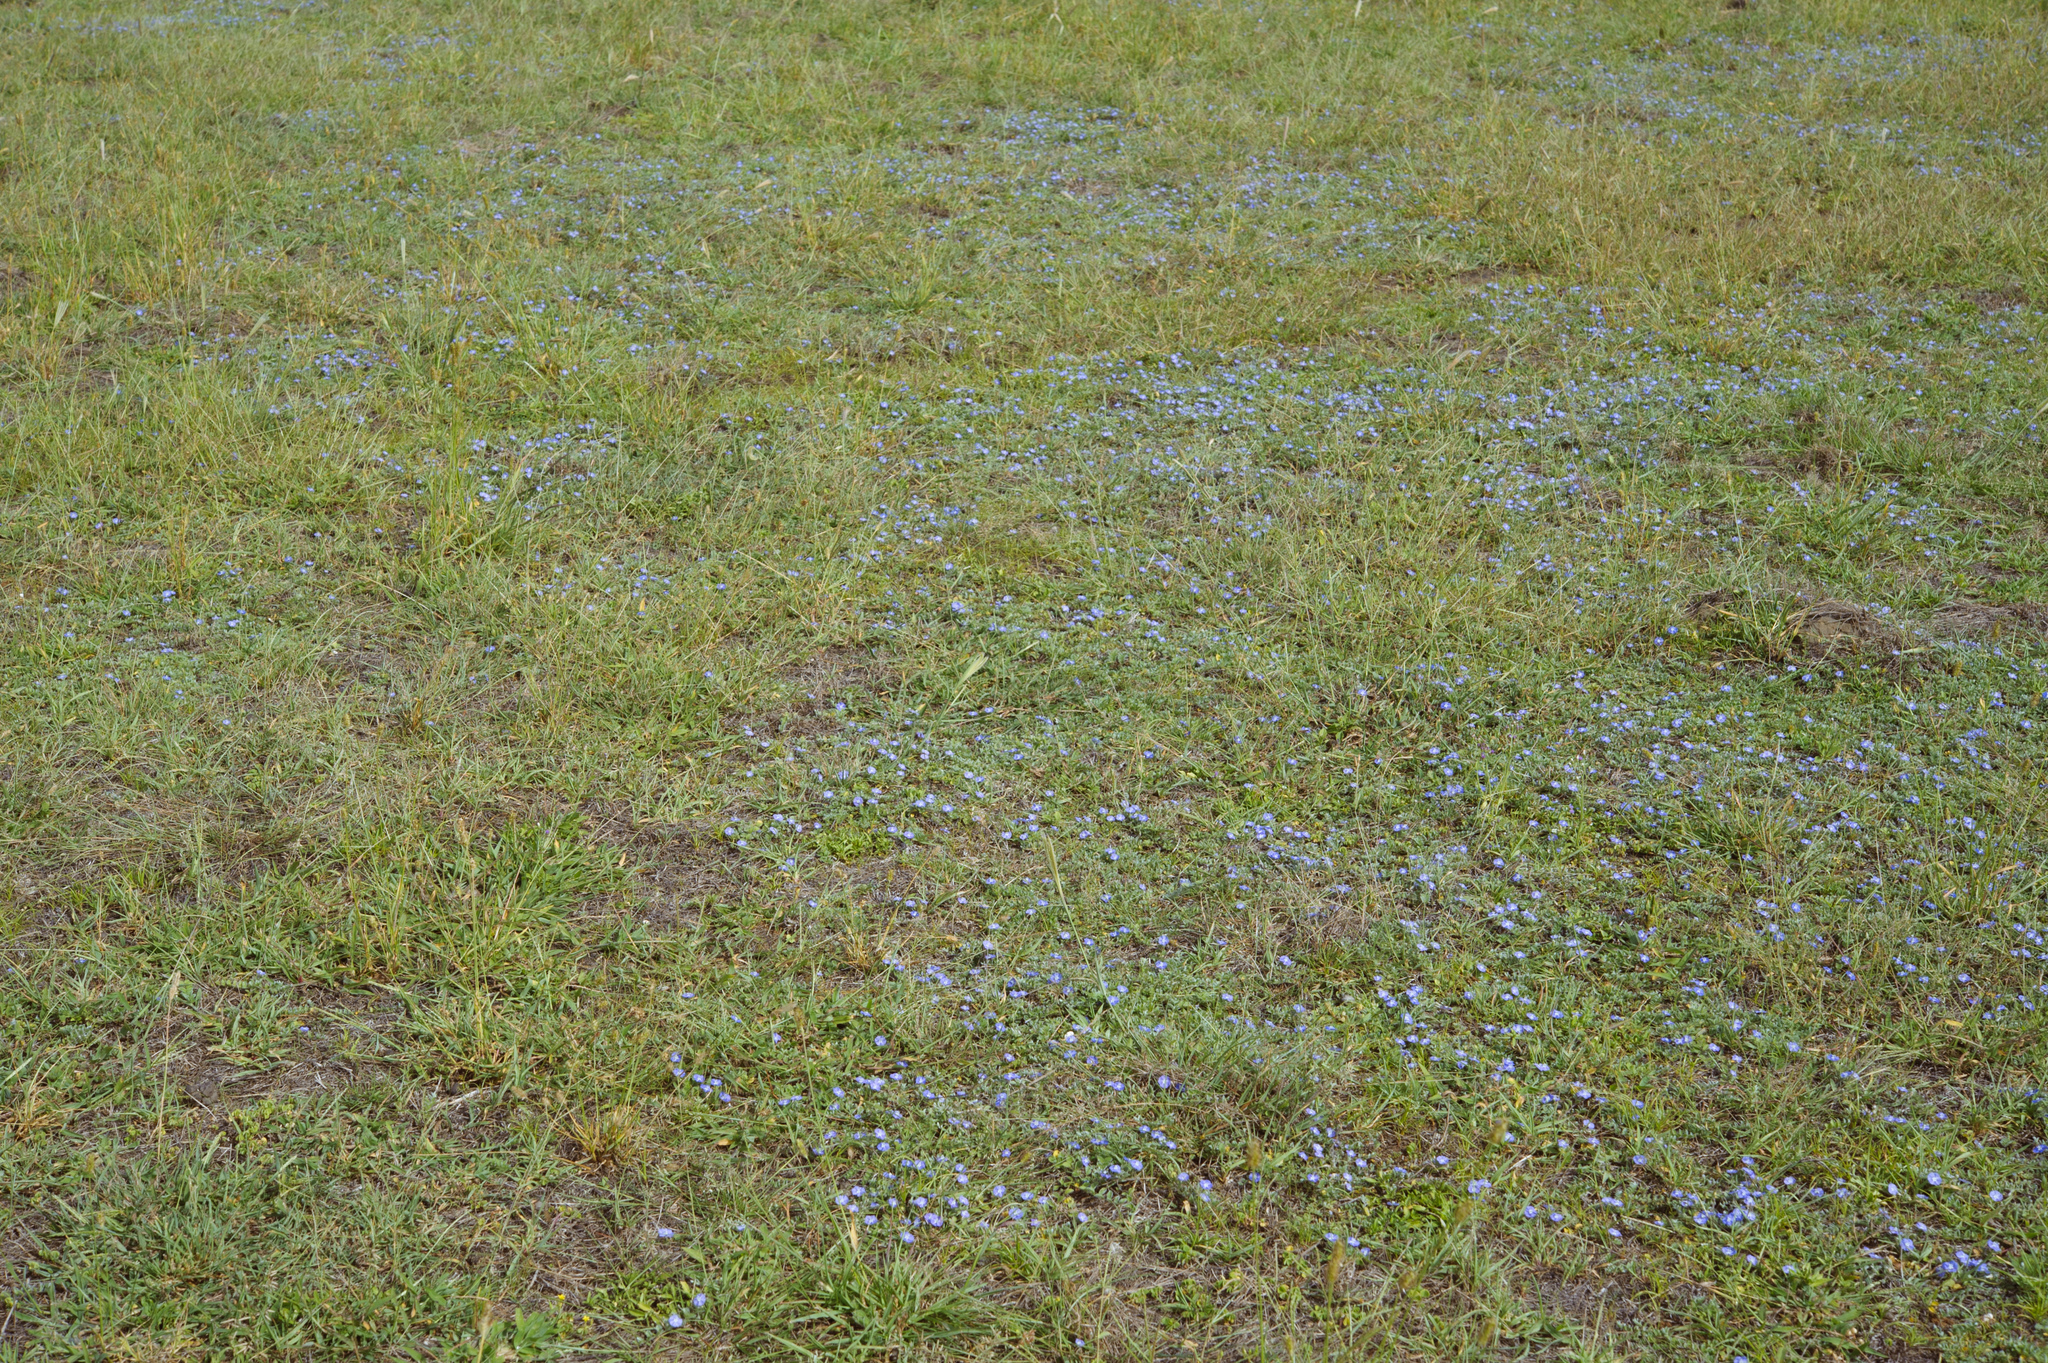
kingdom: Plantae
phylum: Tracheophyta
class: Magnoliopsida
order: Solanales
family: Convolvulaceae
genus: Evolvulus
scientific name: Evolvulus alsinoides
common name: Slender dwarf morning-glory
